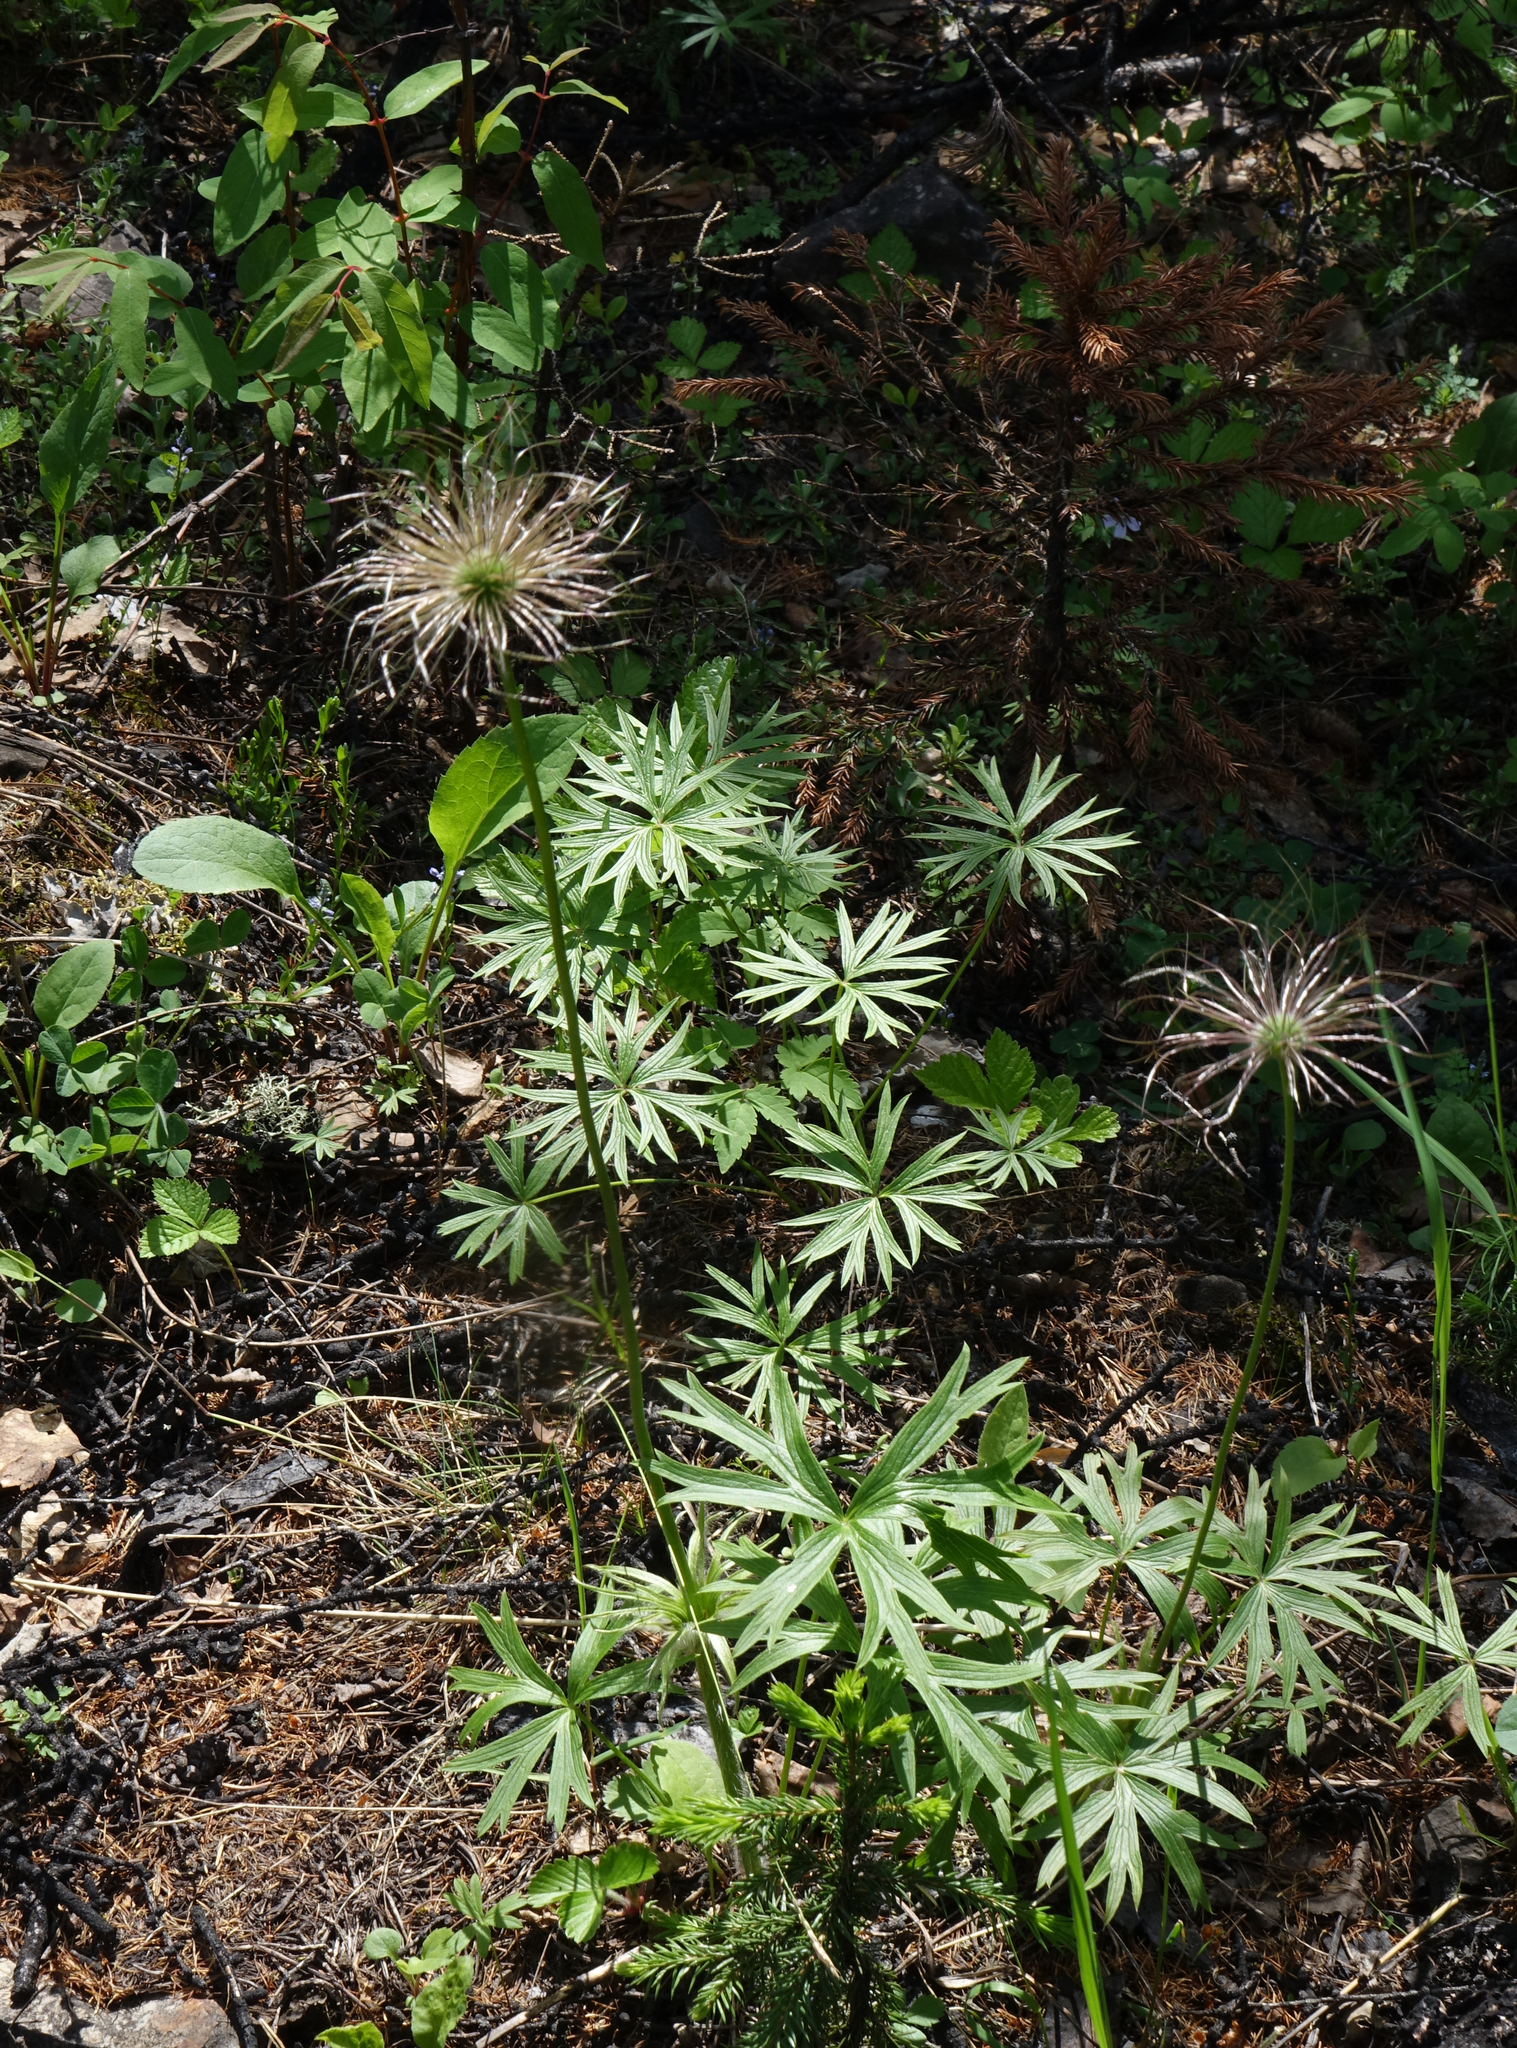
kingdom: Plantae
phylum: Tracheophyta
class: Magnoliopsida
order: Ranunculales
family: Ranunculaceae
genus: Pulsatilla
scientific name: Pulsatilla patens
